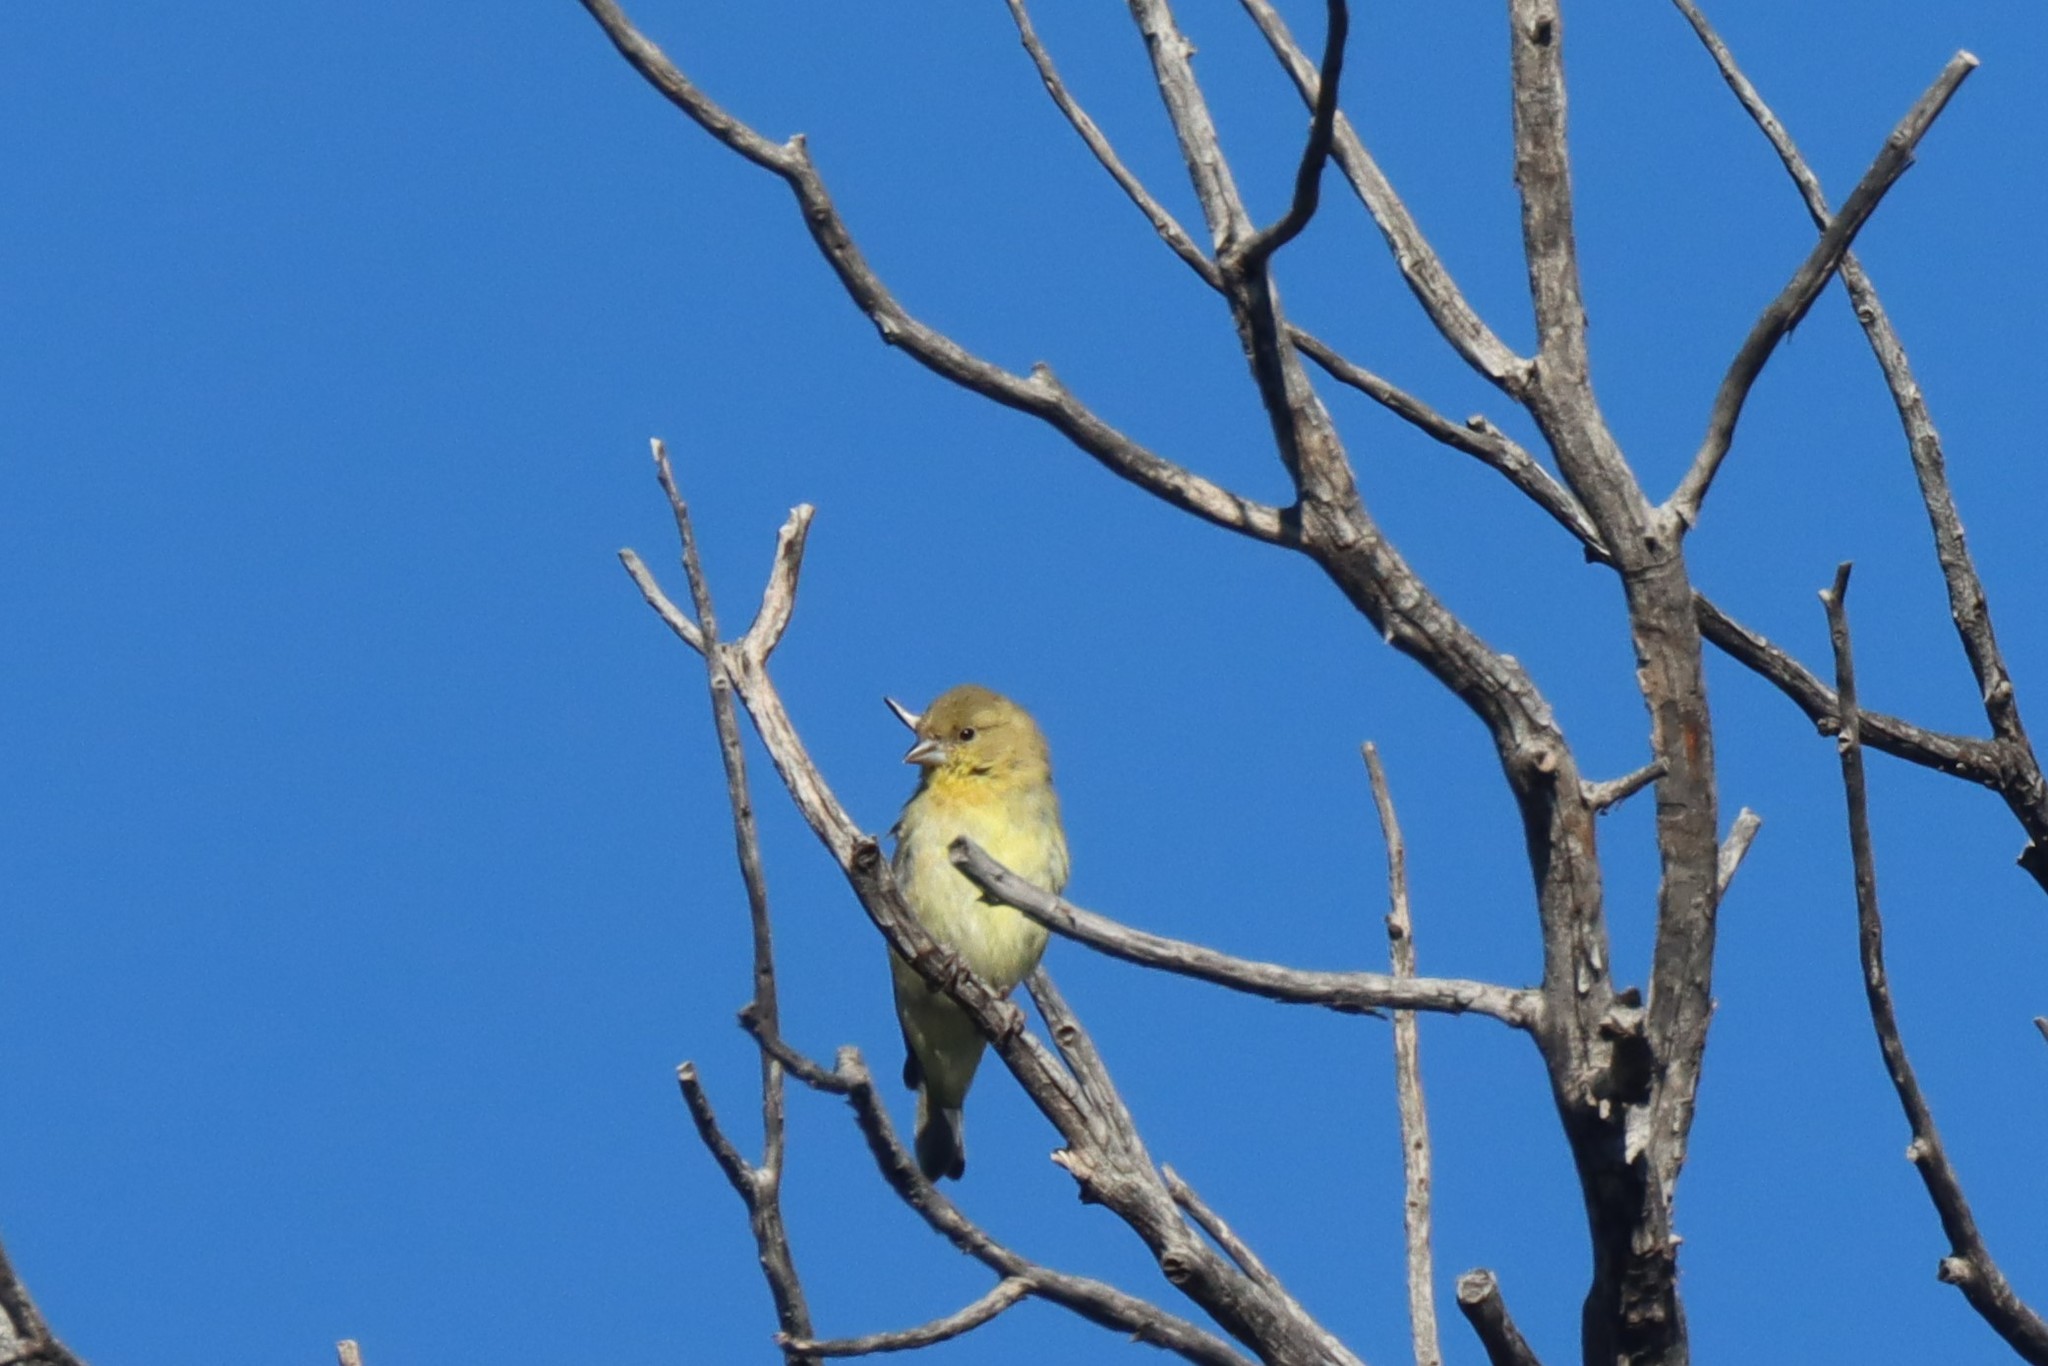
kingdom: Animalia
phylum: Chordata
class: Aves
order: Passeriformes
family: Fringillidae
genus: Spinus
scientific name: Spinus psaltria
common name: Lesser goldfinch
